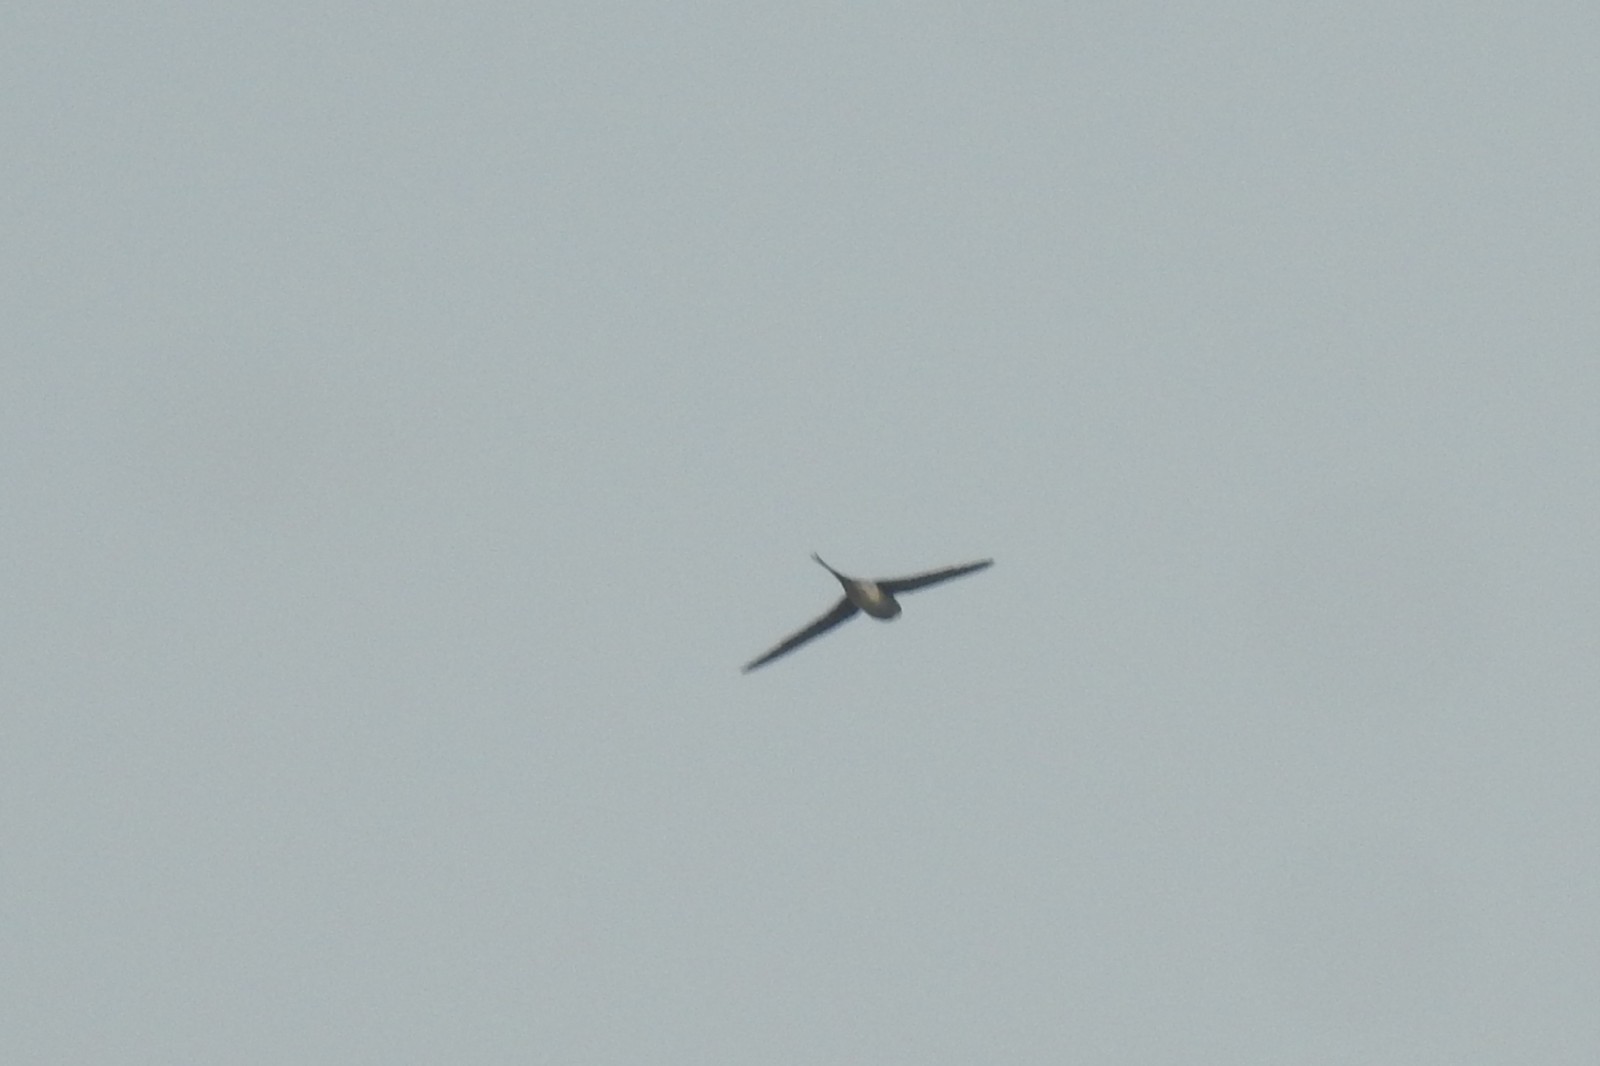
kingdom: Animalia
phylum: Chordata
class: Aves
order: Apodiformes
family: Hemiprocnidae
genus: Hemiprocne
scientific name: Hemiprocne coronata
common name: Crested treeswift
